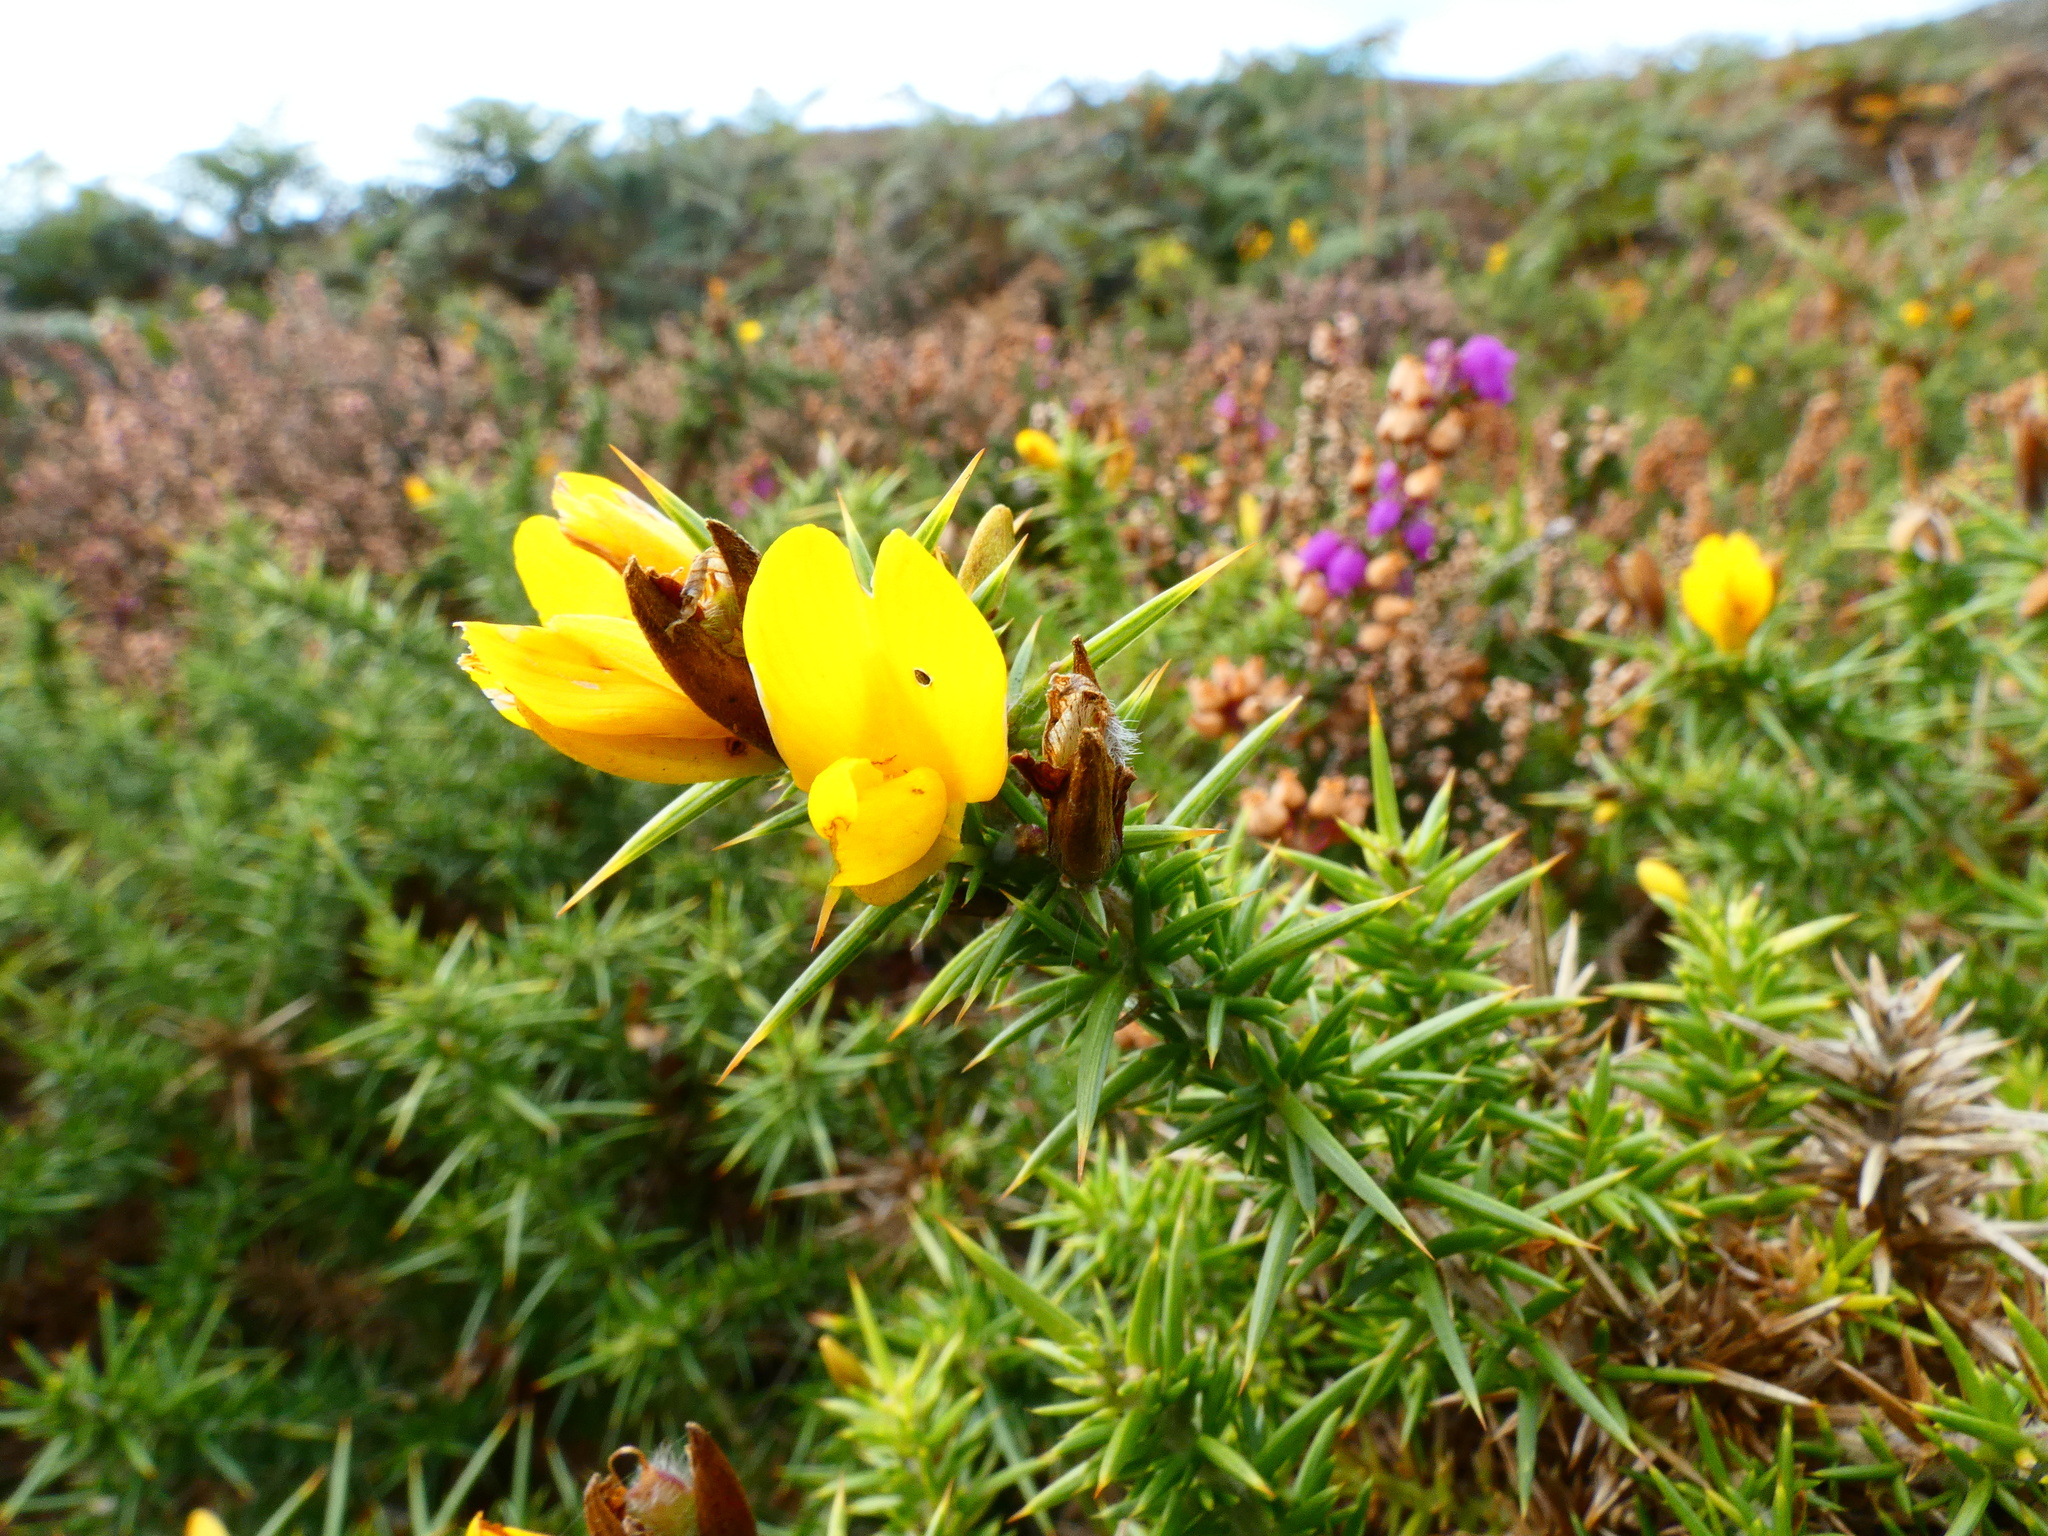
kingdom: Plantae
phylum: Tracheophyta
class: Magnoliopsida
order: Fabales
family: Fabaceae
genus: Ulex
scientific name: Ulex europaeus
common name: Common gorse
